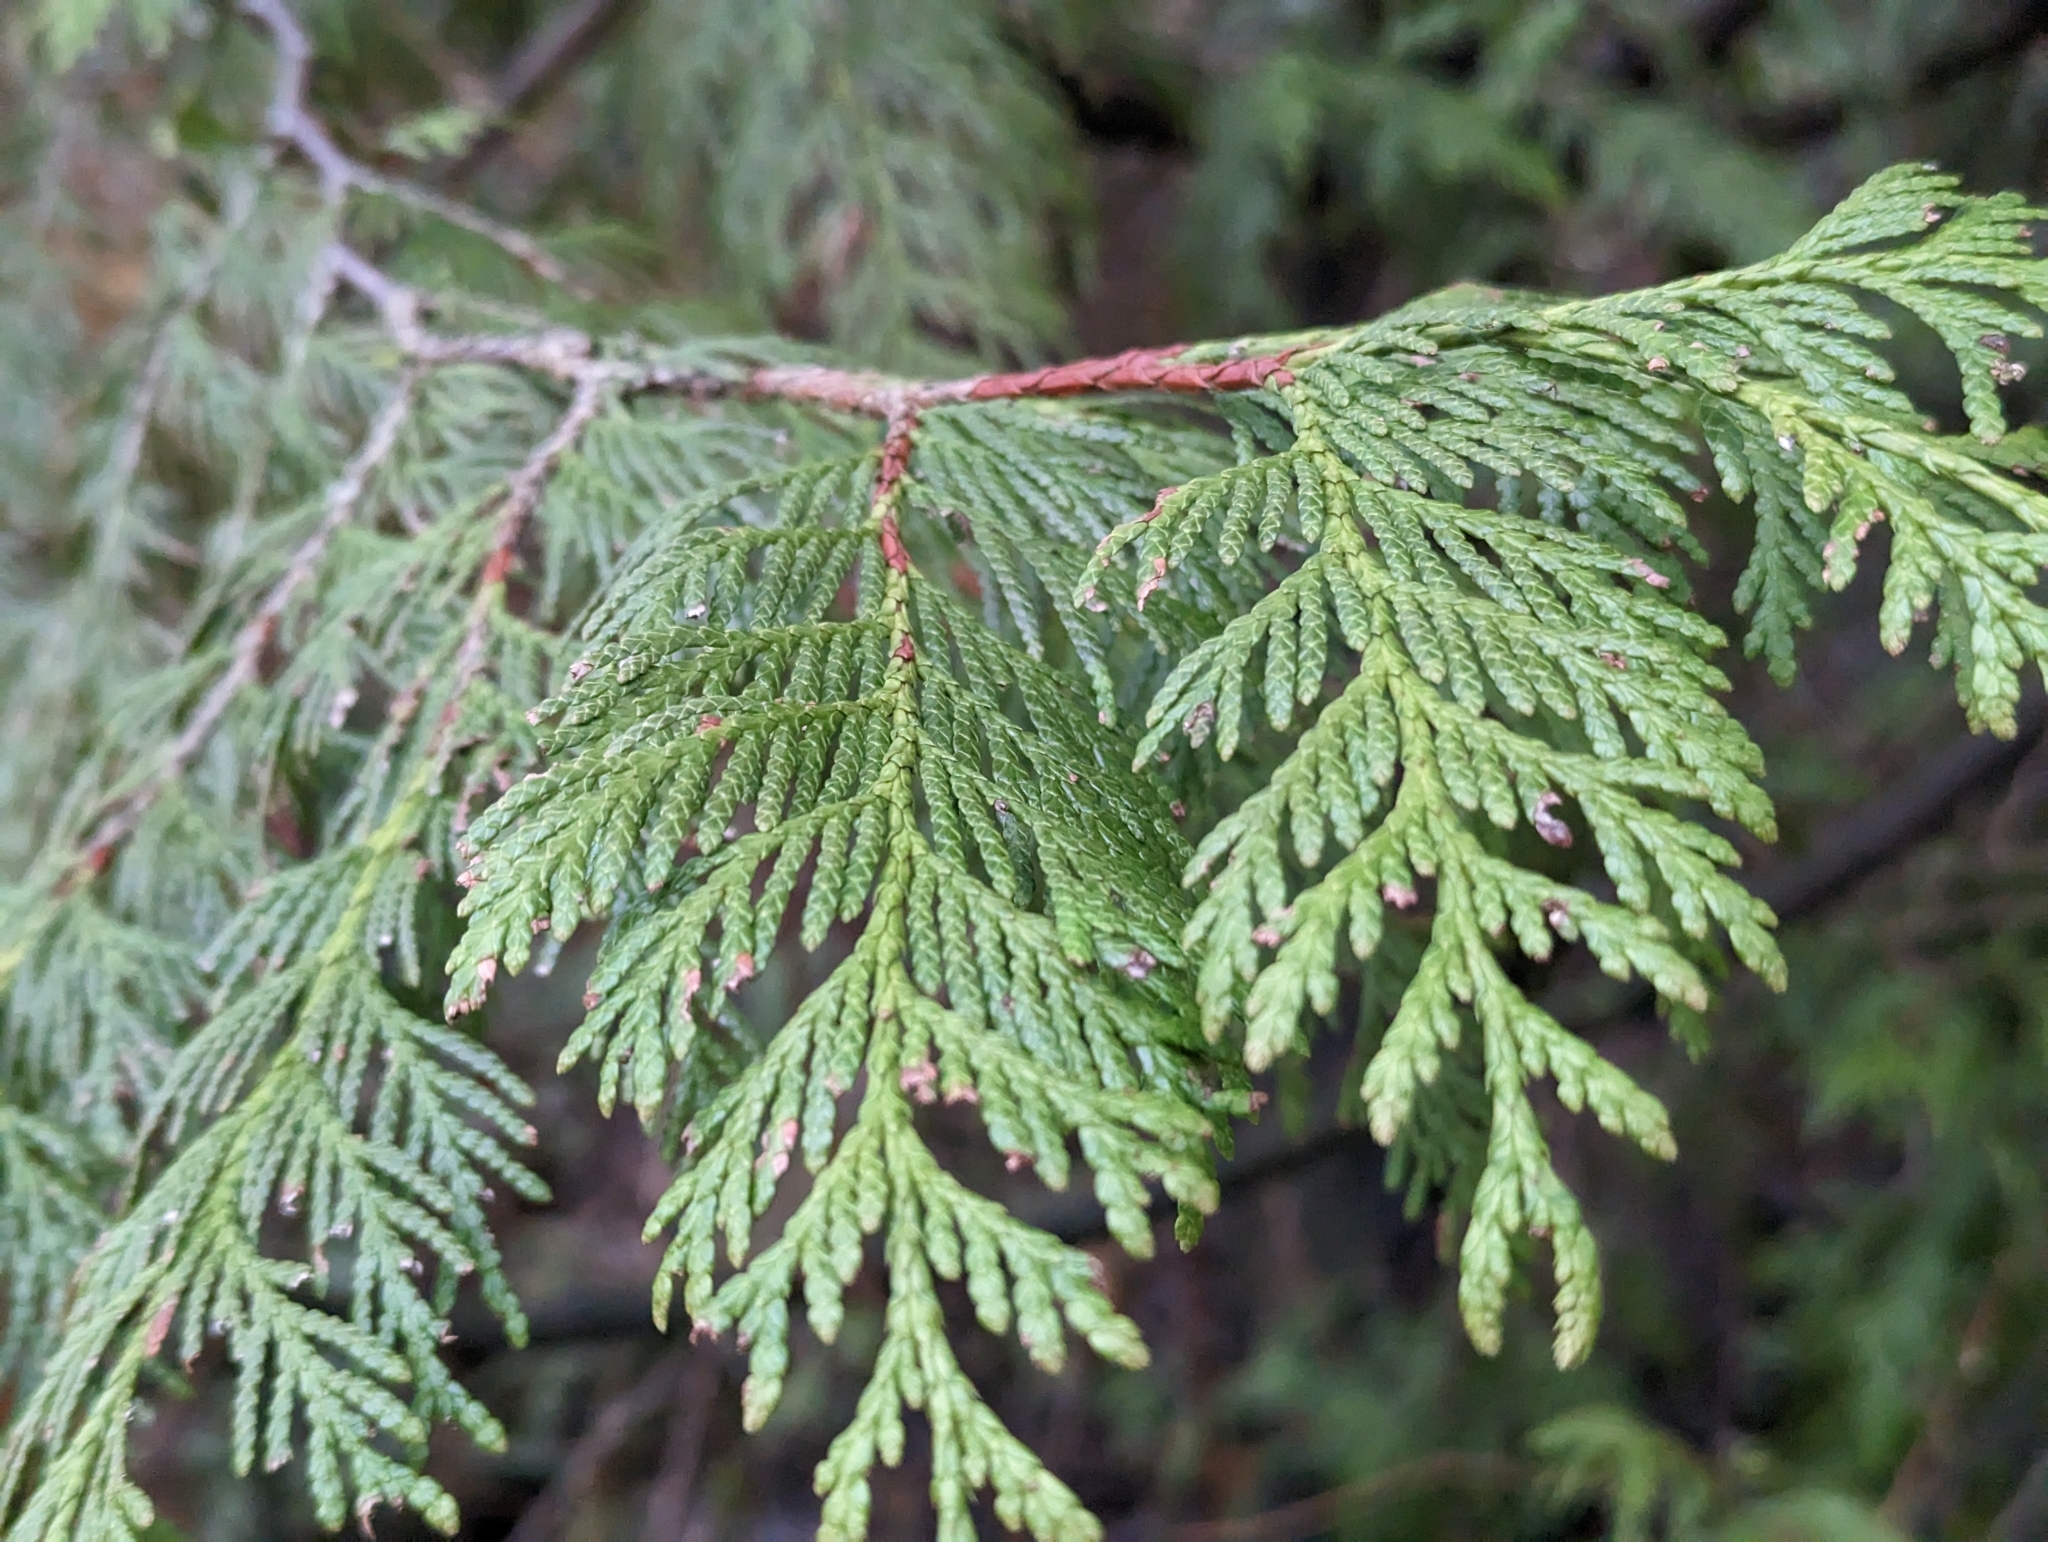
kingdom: Plantae
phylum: Tracheophyta
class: Pinopsida
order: Pinales
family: Cupressaceae
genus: Thuja
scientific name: Thuja plicata
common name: Western red-cedar
